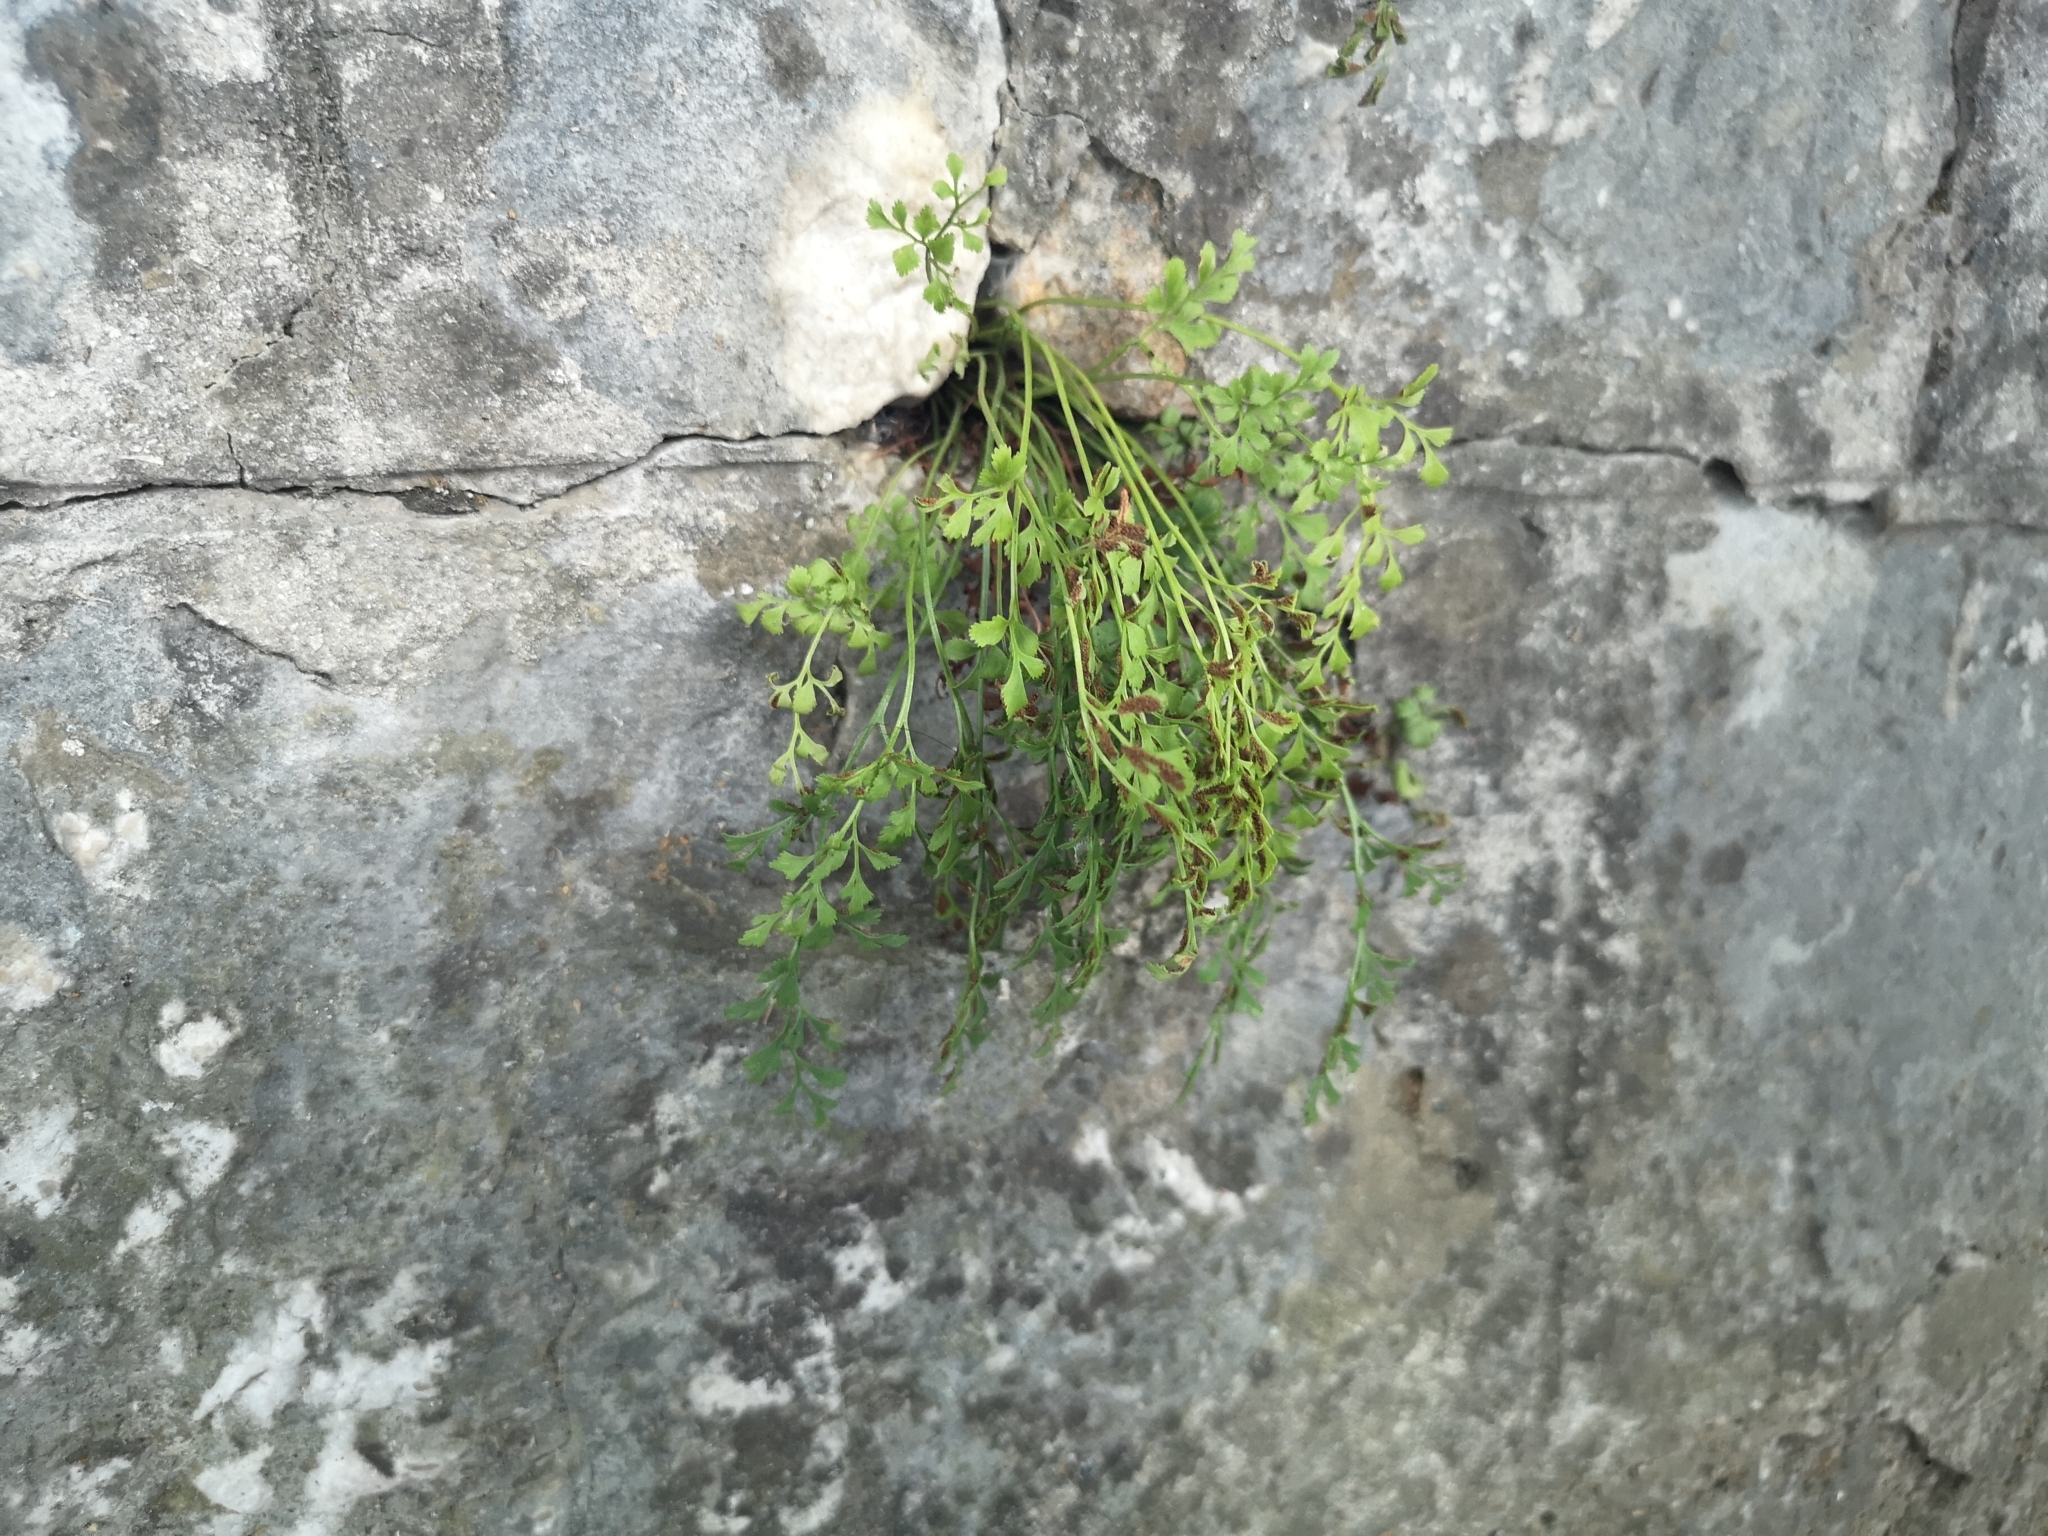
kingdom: Plantae
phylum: Tracheophyta
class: Polypodiopsida
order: Polypodiales
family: Aspleniaceae
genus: Asplenium
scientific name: Asplenium ruta-muraria
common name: Wall-rue
